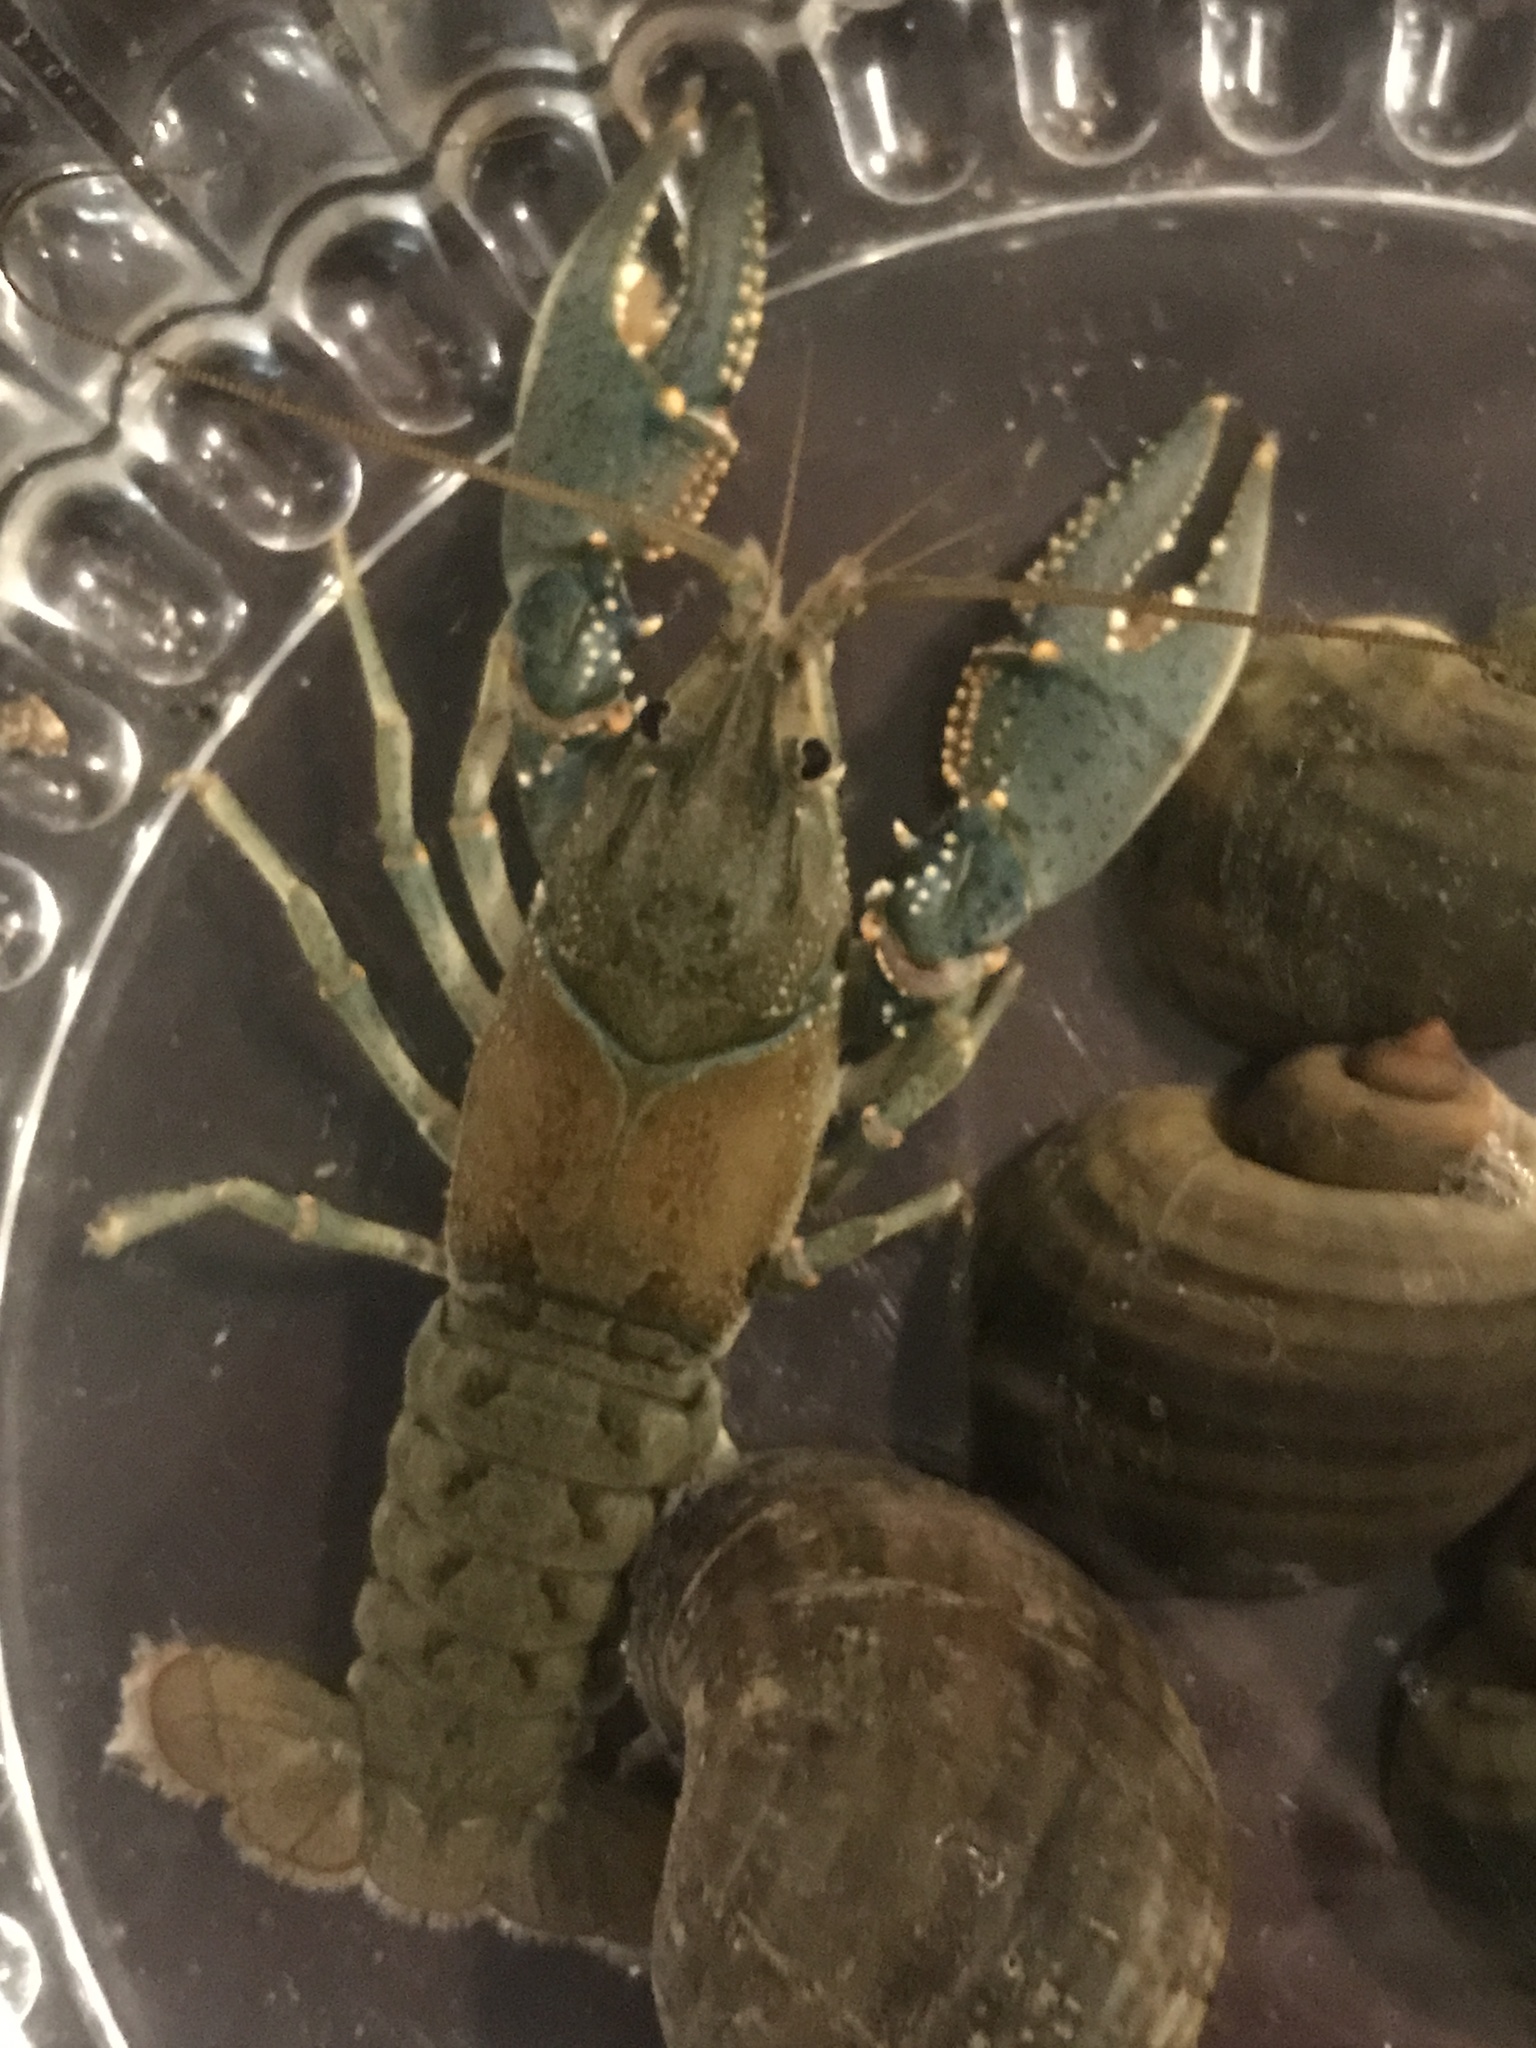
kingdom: Animalia
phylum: Arthropoda
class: Malacostraca
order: Decapoda
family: Cambaridae
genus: Faxonius
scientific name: Faxonius virilis
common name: Virile crayfish
